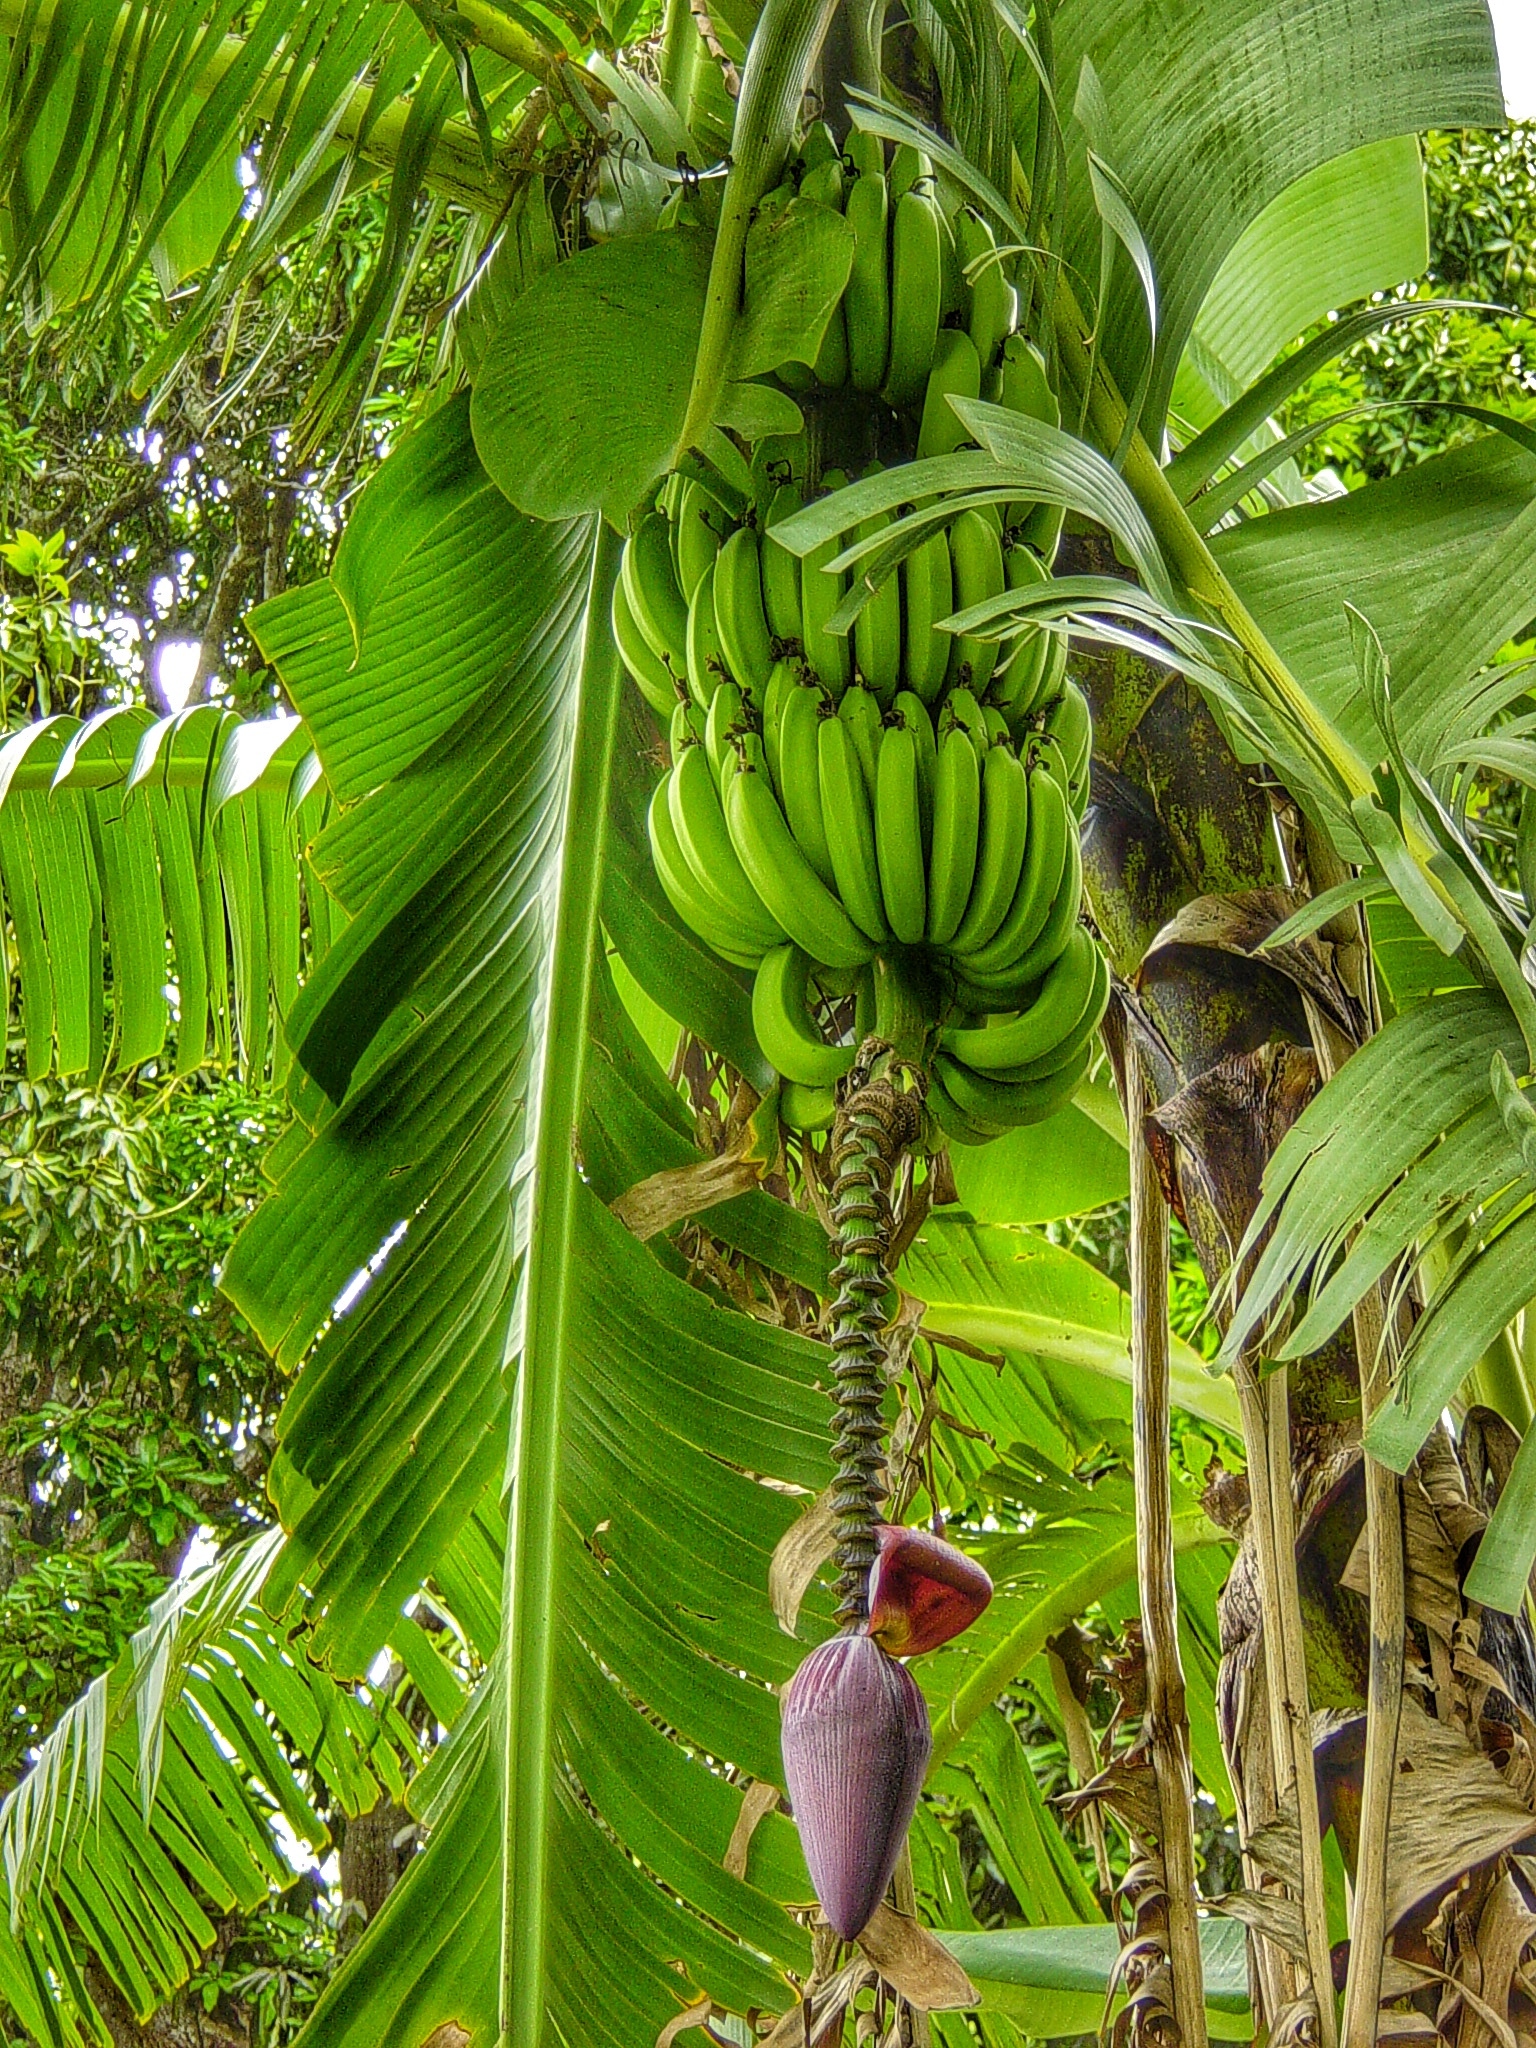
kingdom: Plantae
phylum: Tracheophyta
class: Liliopsida
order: Zingiberales
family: Musaceae
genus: Musa
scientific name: Musa acuminata
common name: Edible banana
